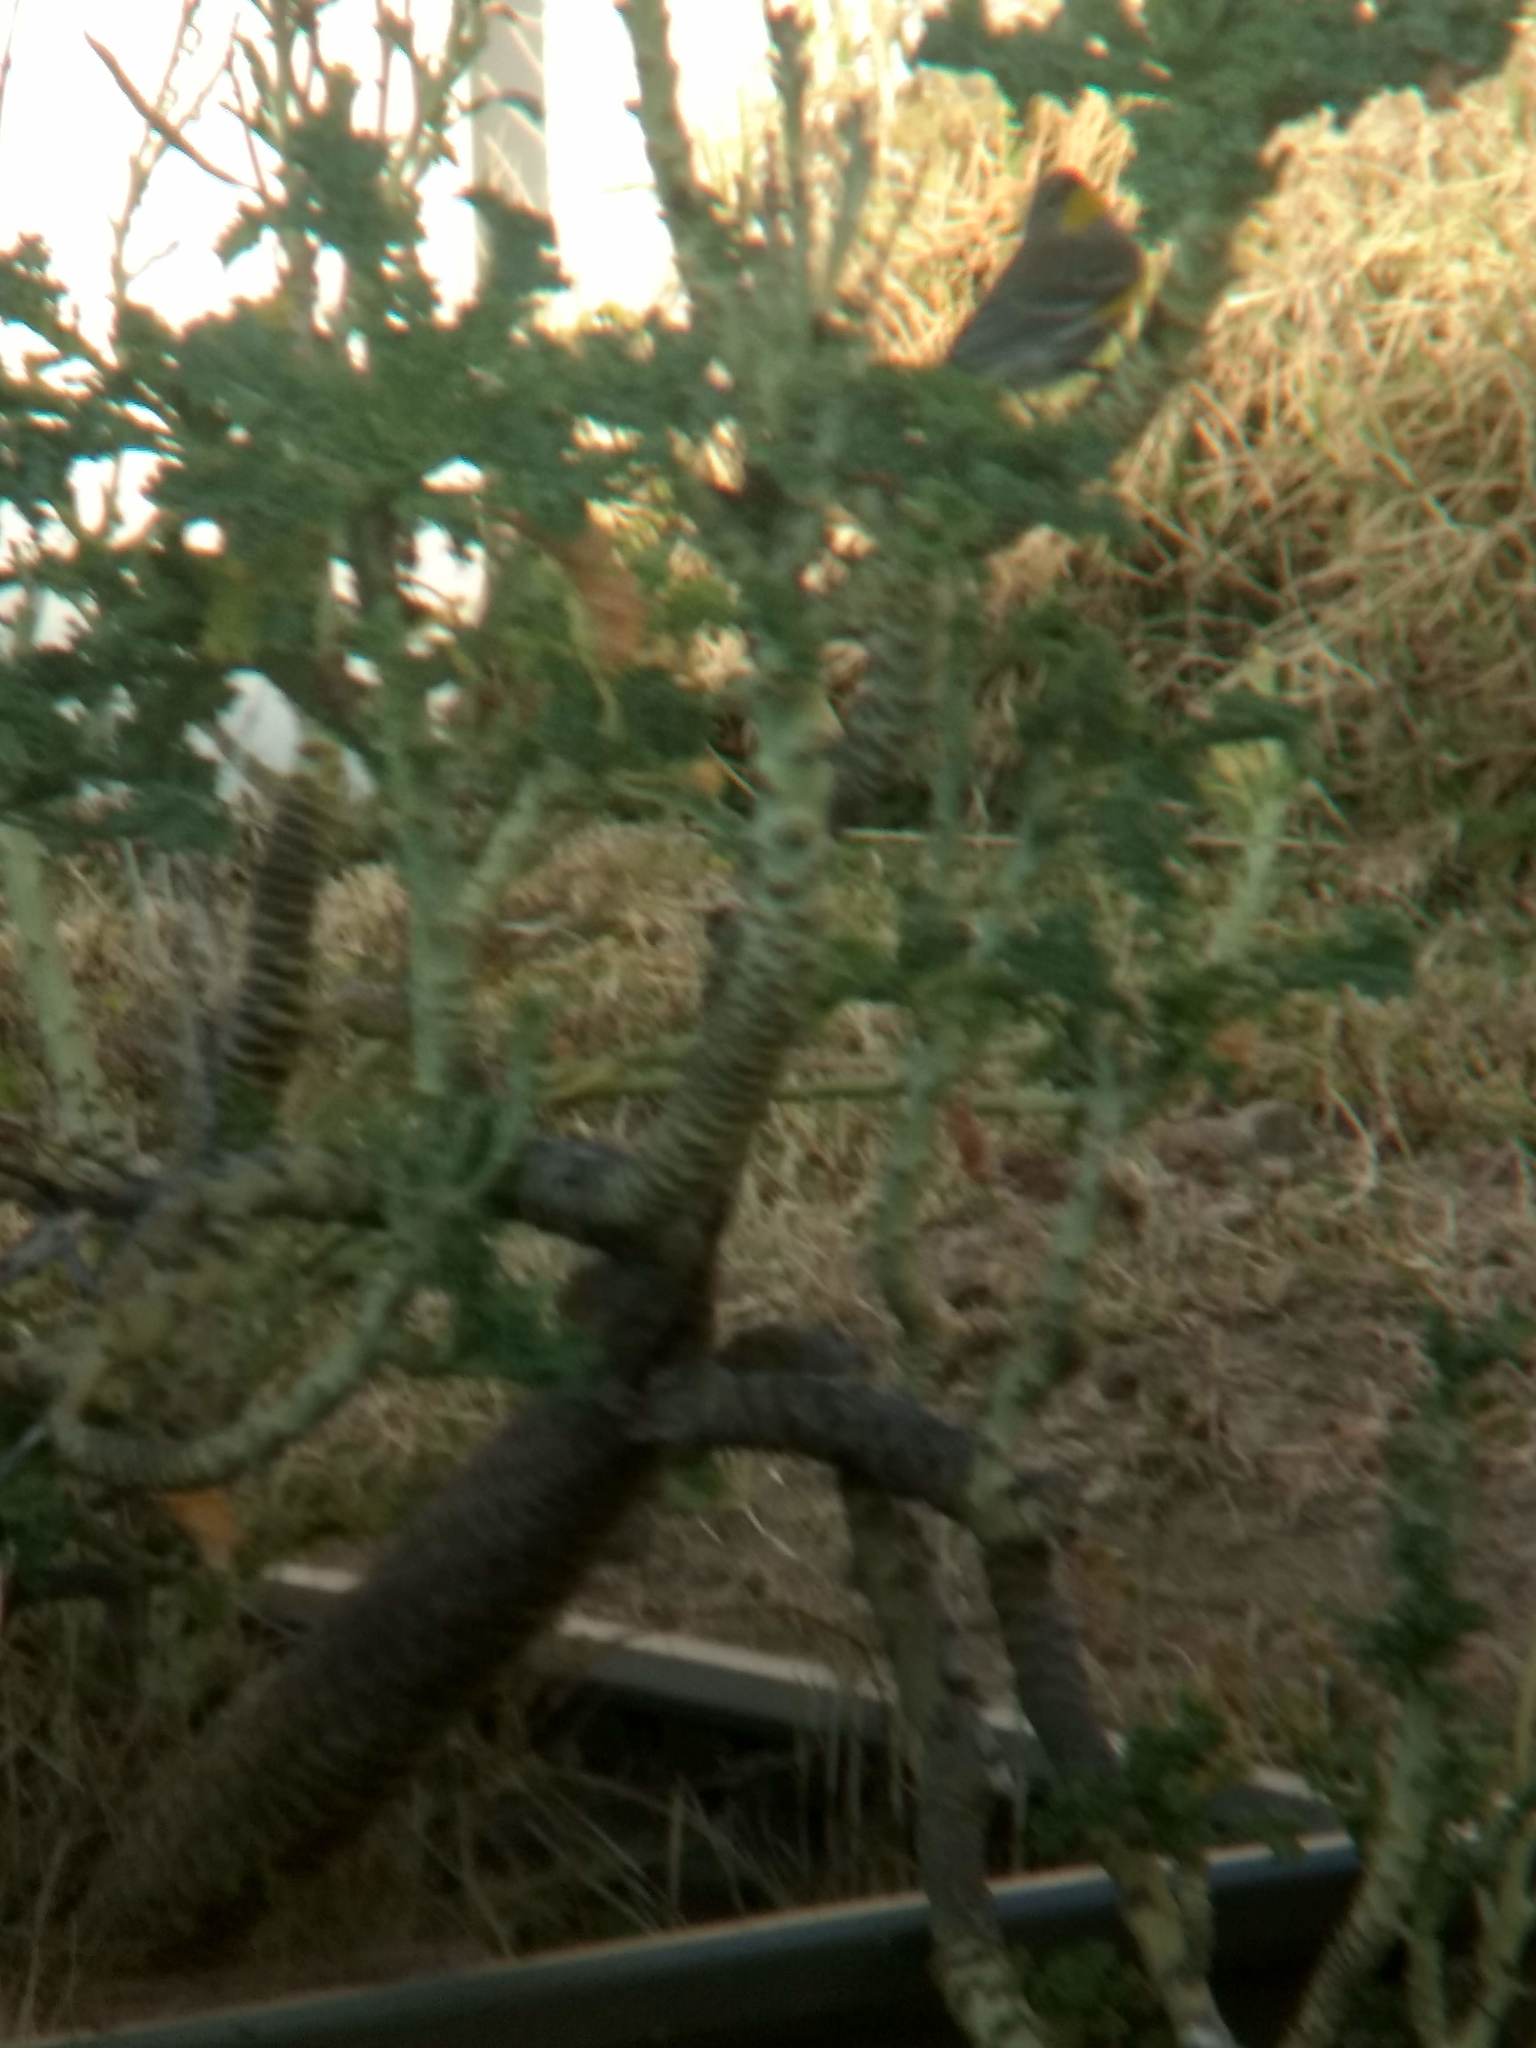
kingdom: Animalia
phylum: Chordata
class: Aves
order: Passeriformes
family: Parulidae
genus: Setophaga
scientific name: Setophaga coronata
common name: Myrtle warbler
